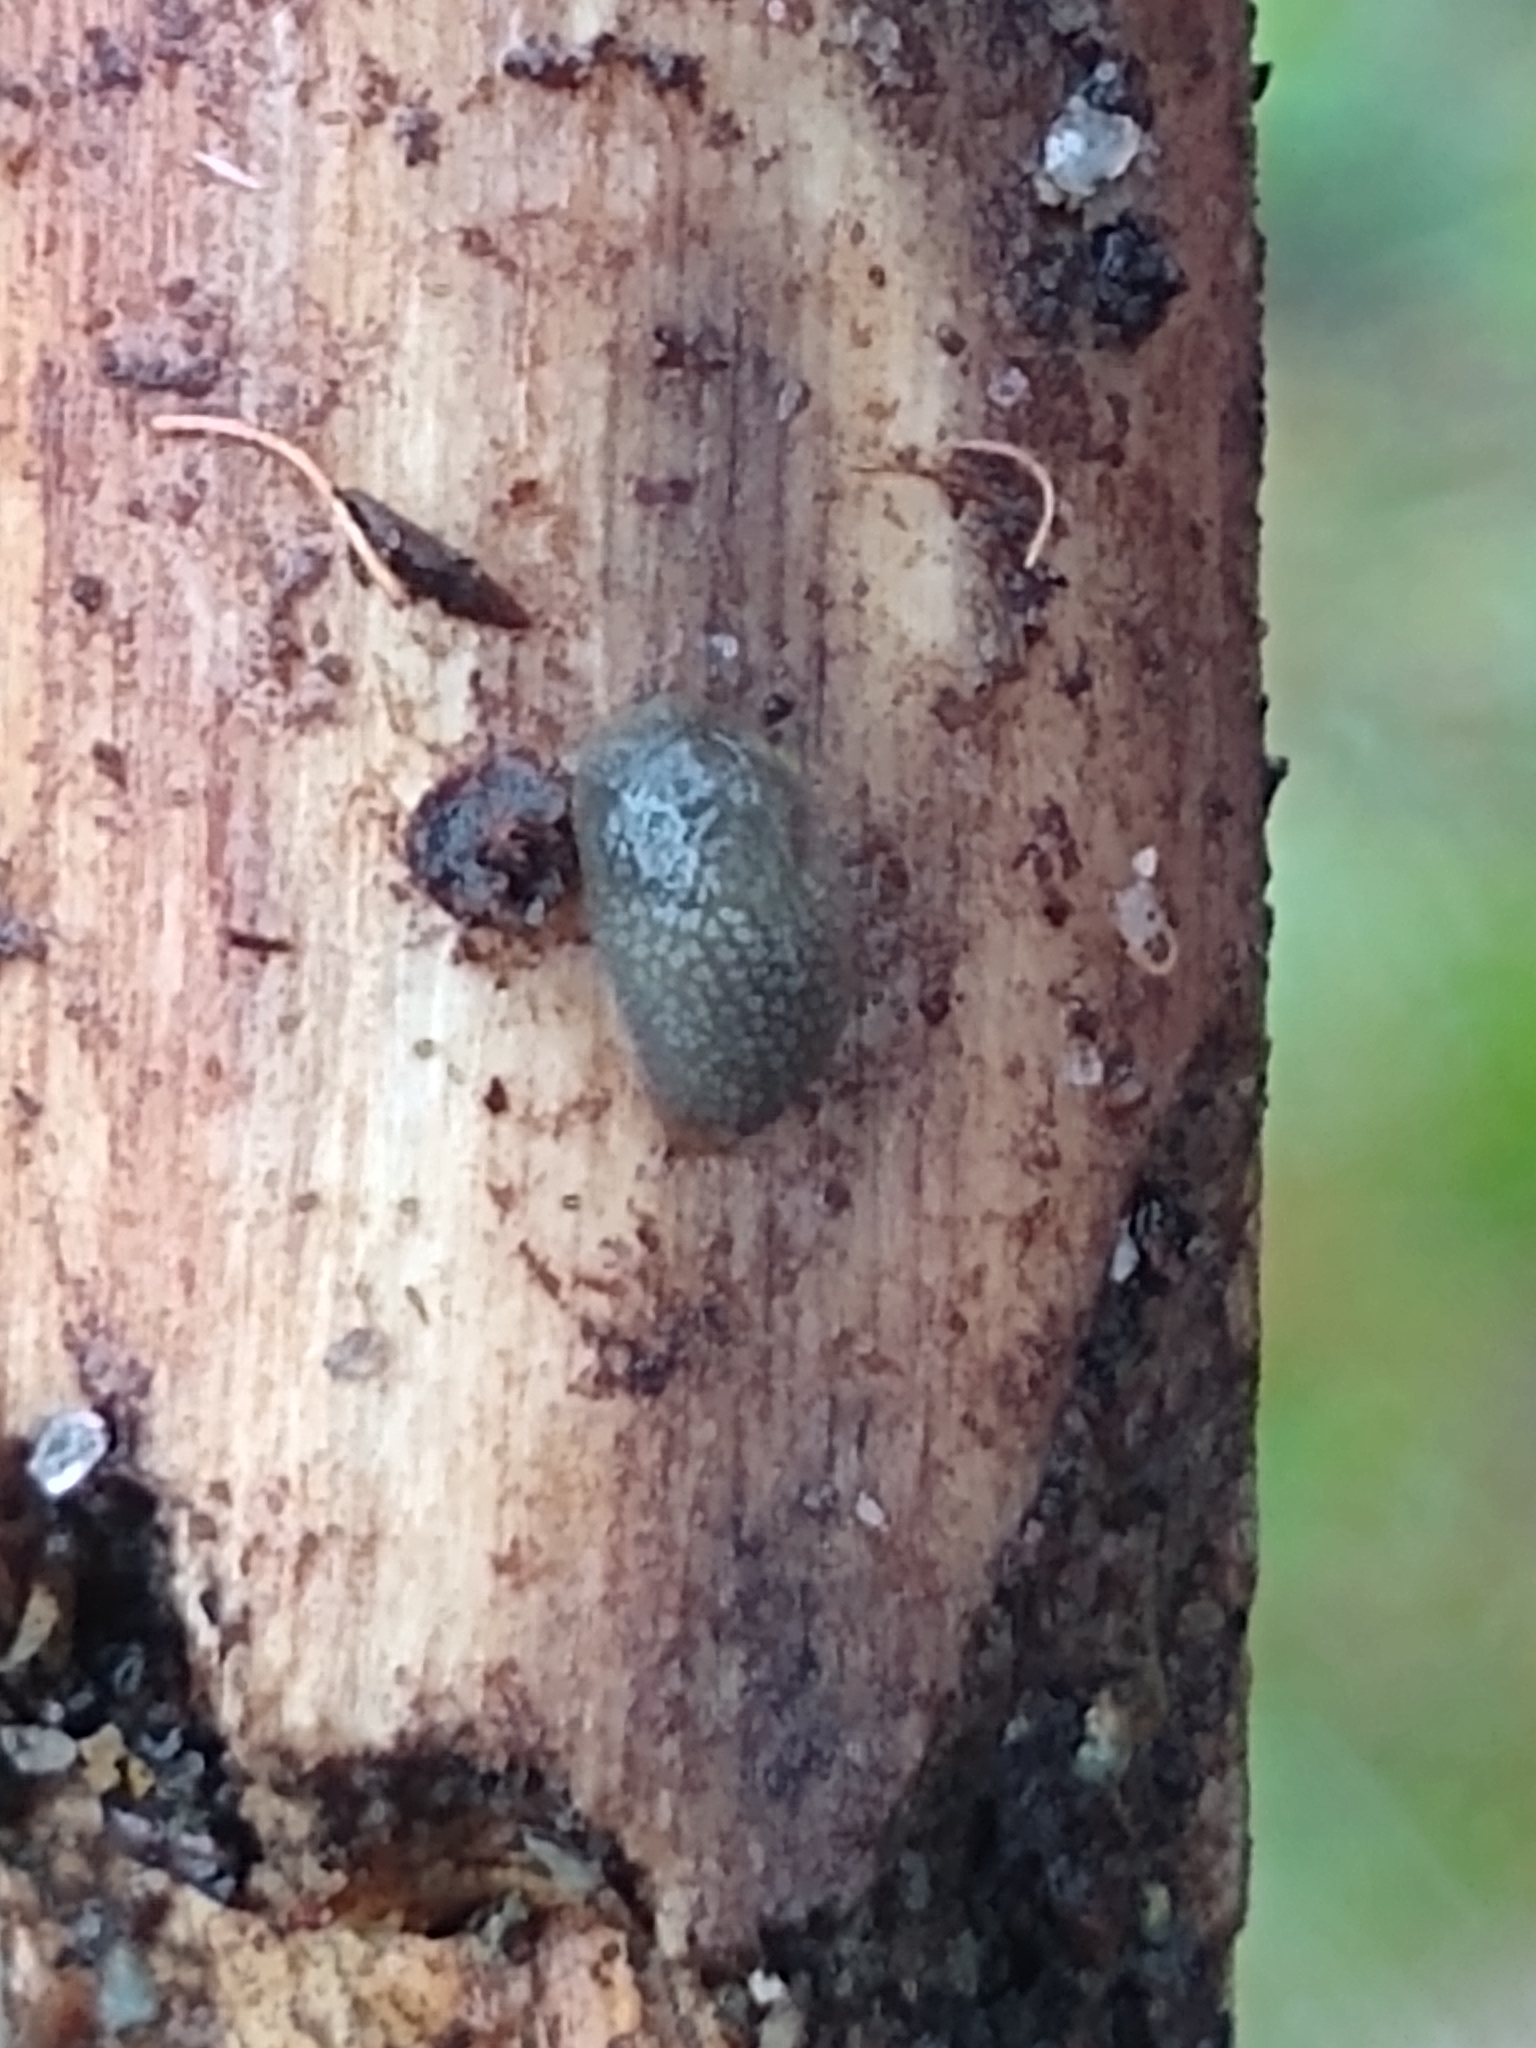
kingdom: Animalia
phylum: Mollusca
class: Gastropoda
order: Stylommatophora
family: Arionidae
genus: Arion
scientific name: Arion intermedius
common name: Hedgehog slug
